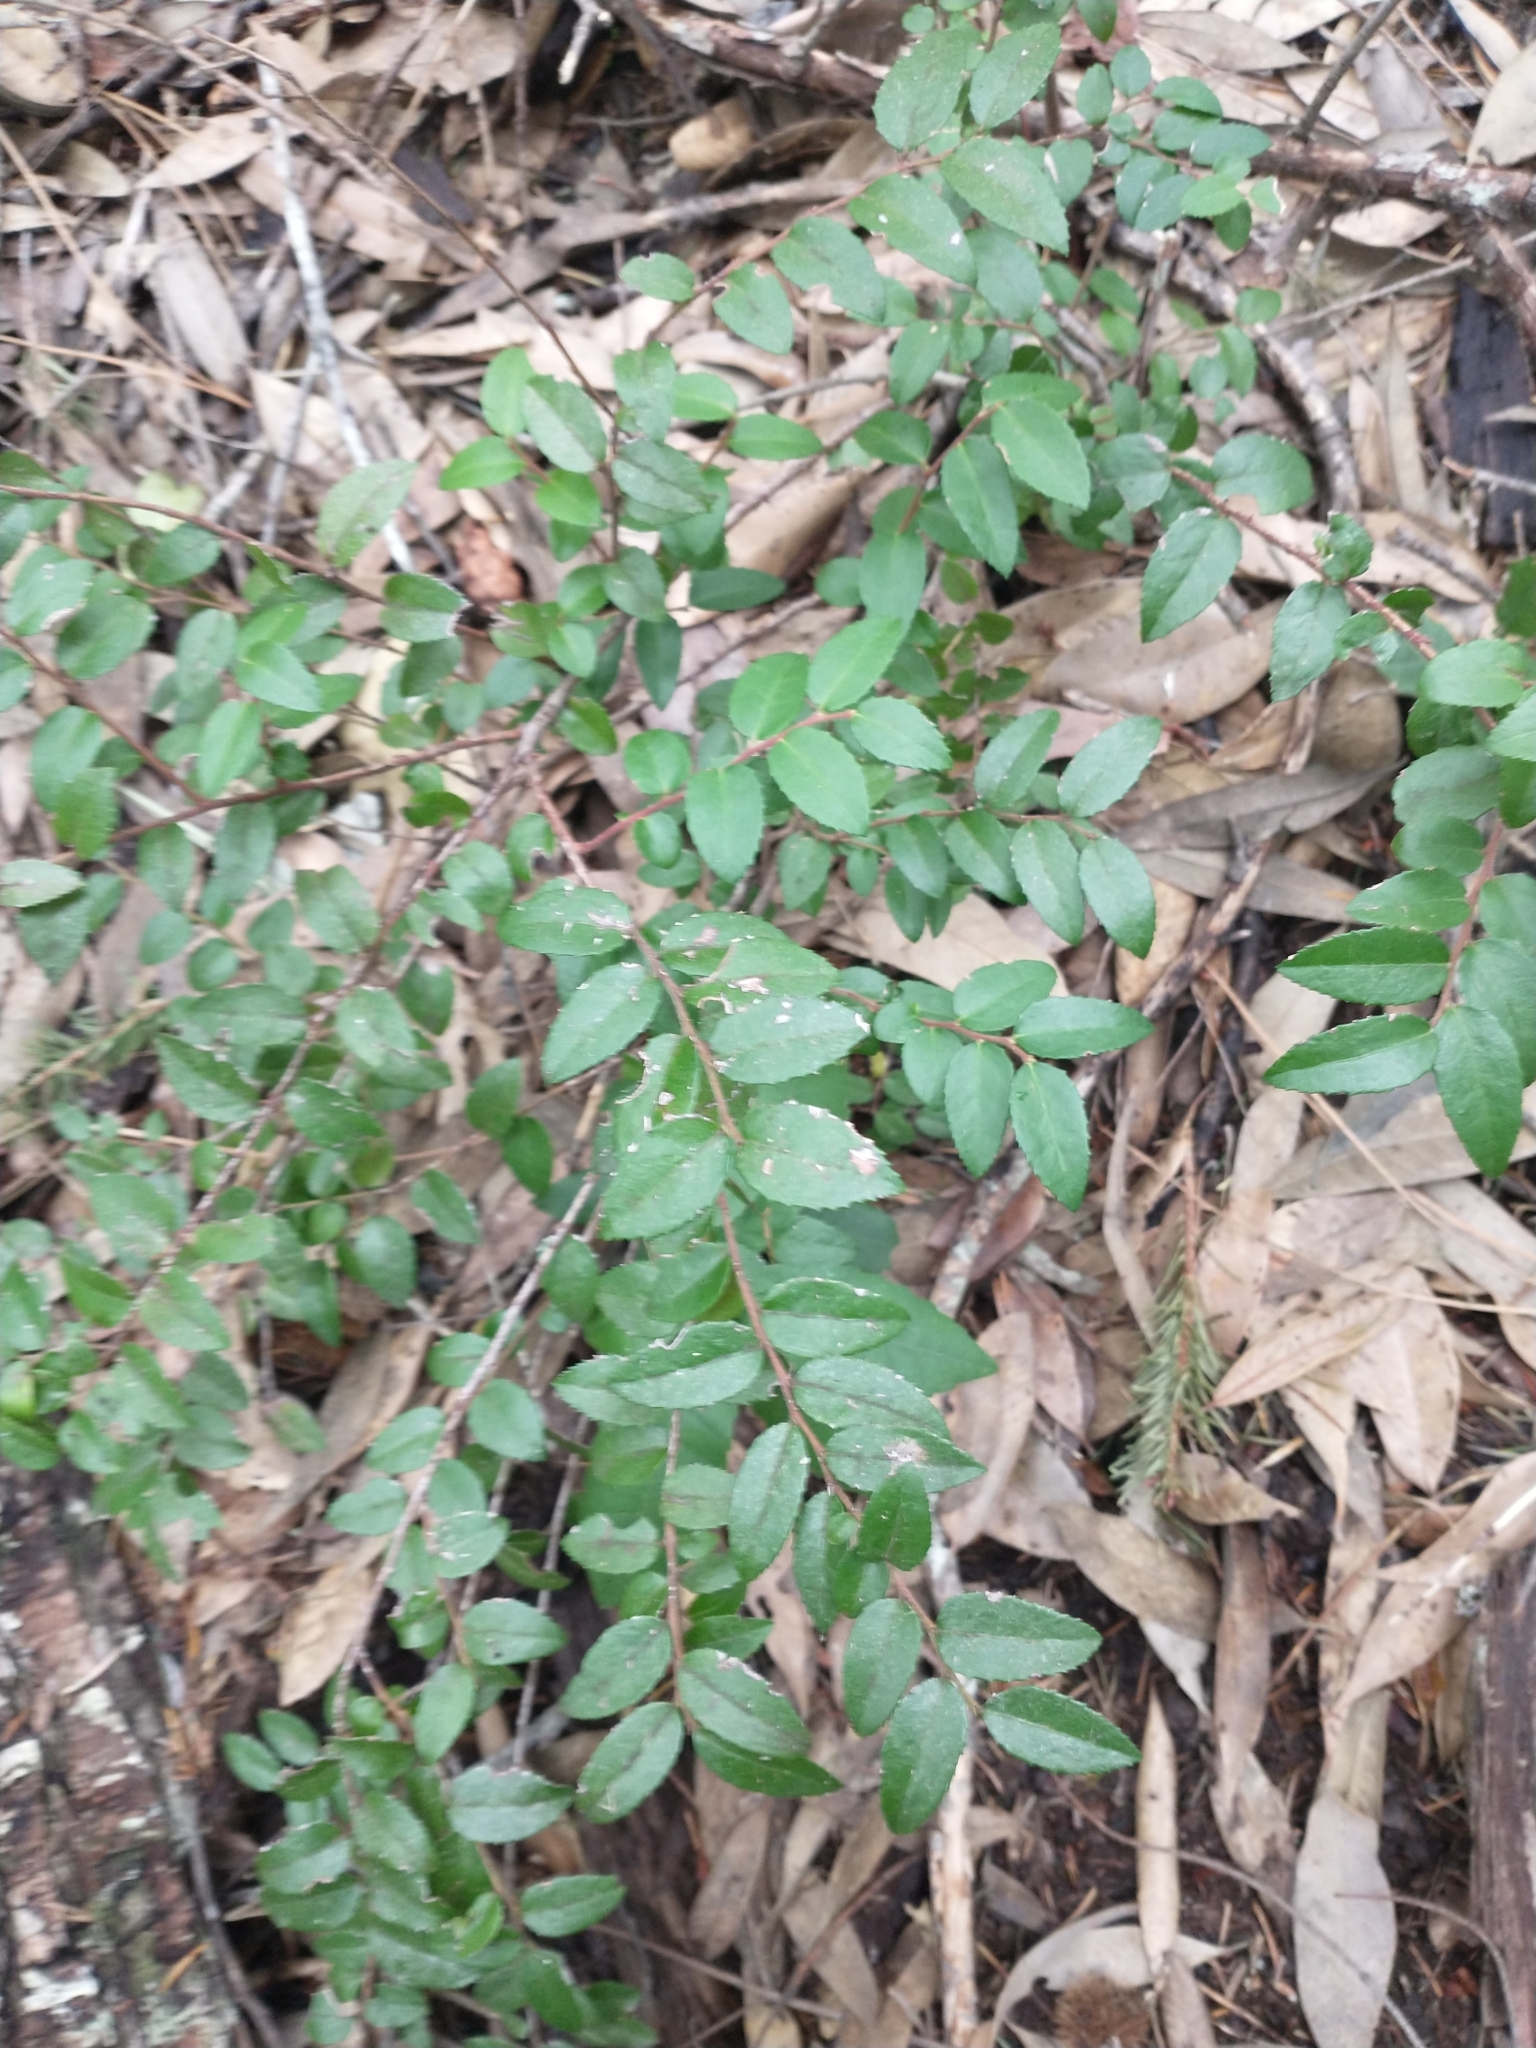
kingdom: Plantae
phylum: Tracheophyta
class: Magnoliopsida
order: Ericales
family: Ericaceae
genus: Vaccinium
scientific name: Vaccinium ovatum
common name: California-huckleberry
